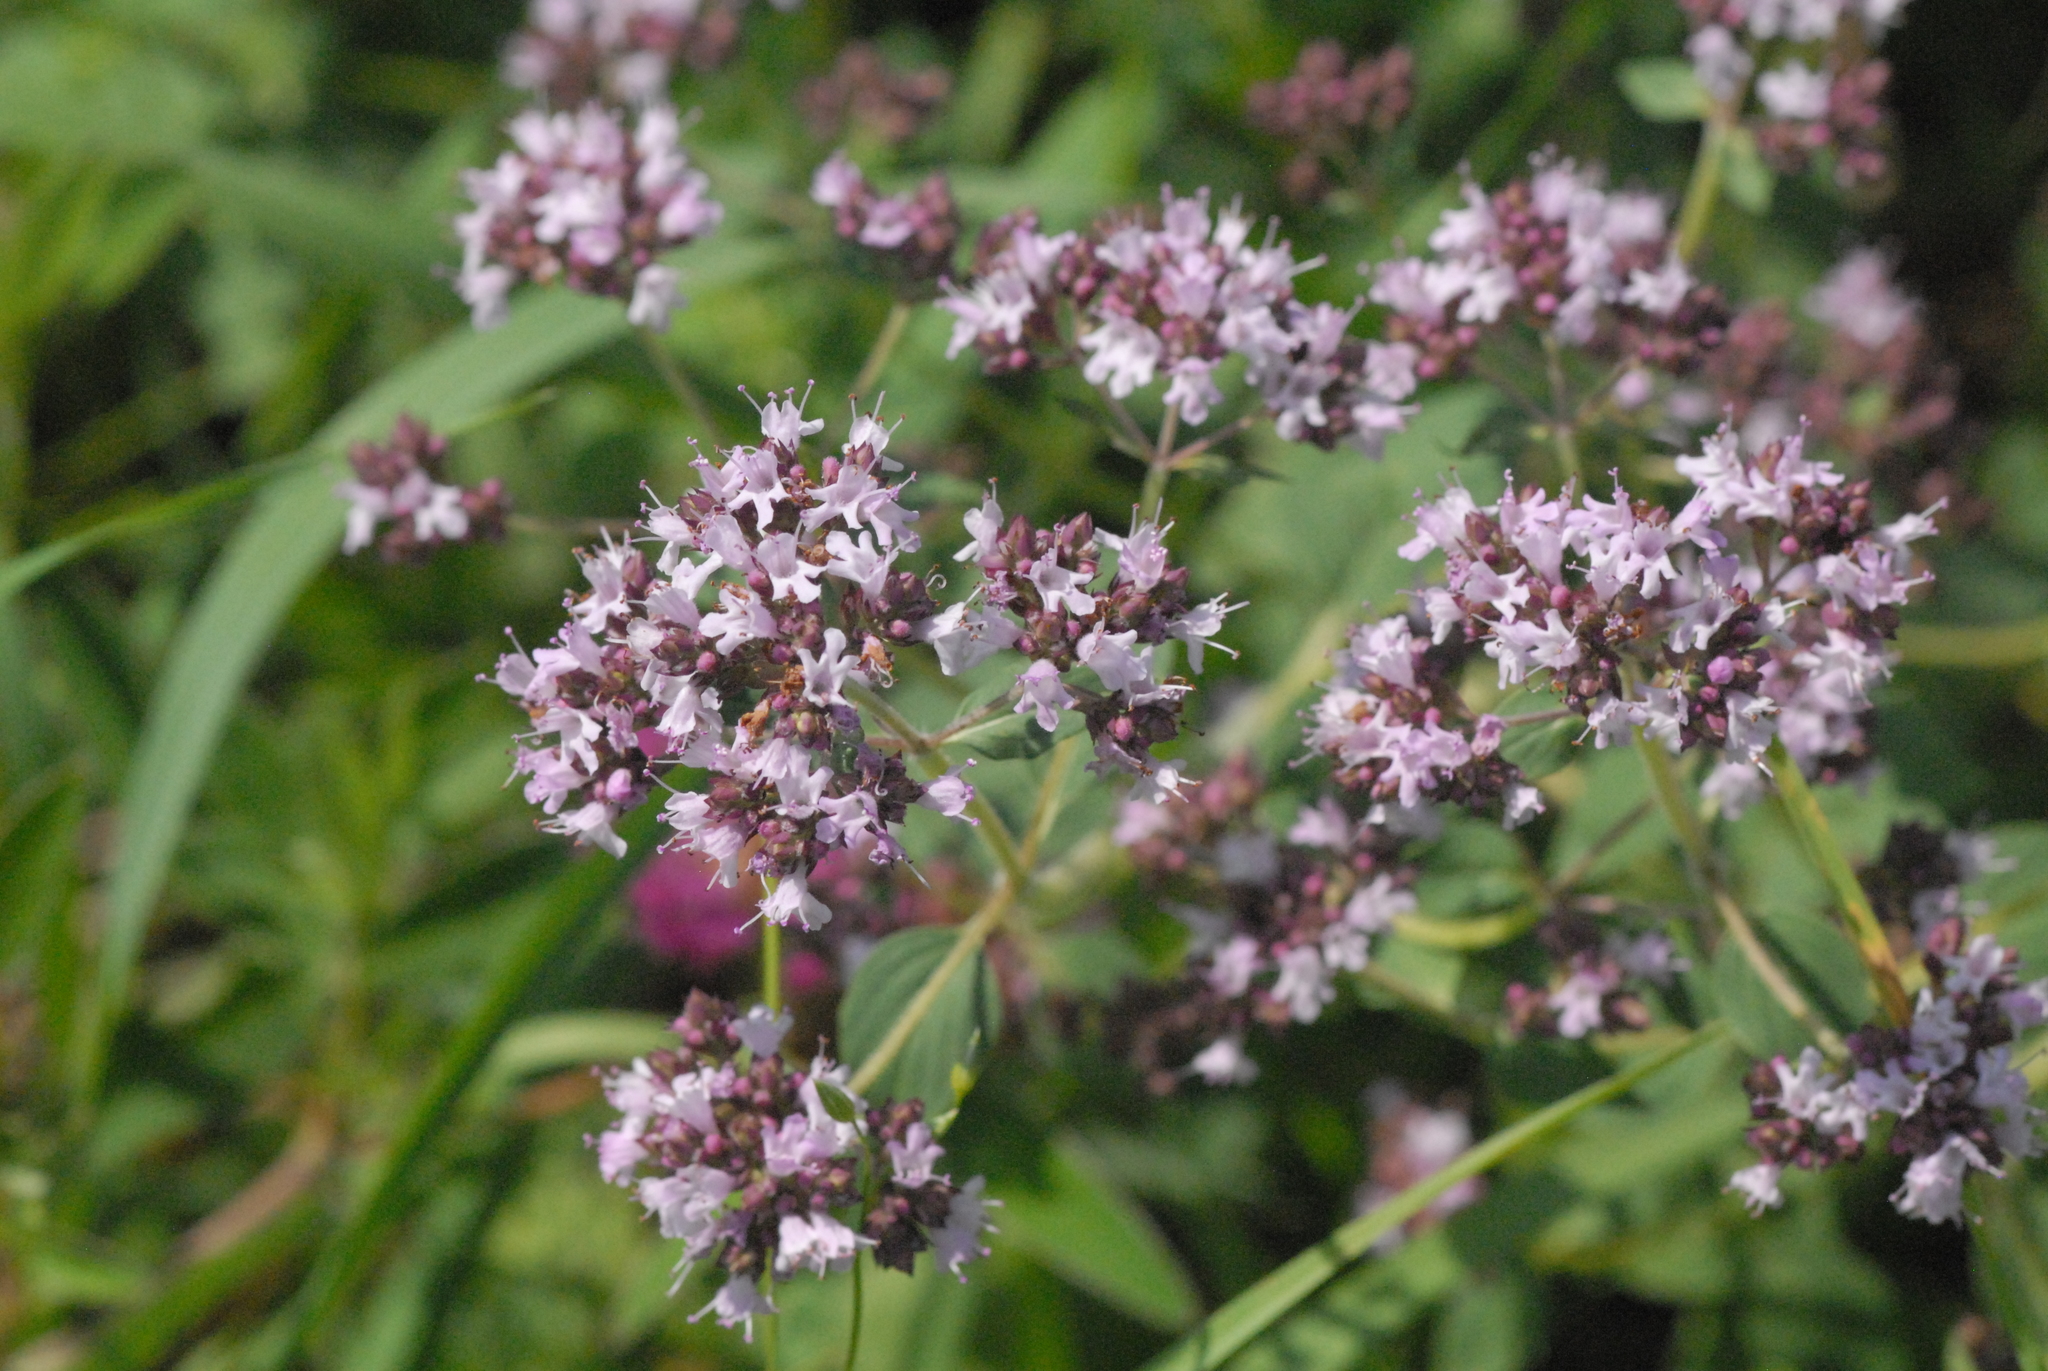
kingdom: Plantae
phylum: Tracheophyta
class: Magnoliopsida
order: Lamiales
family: Lamiaceae
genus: Origanum
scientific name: Origanum vulgare
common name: Wild marjoram
